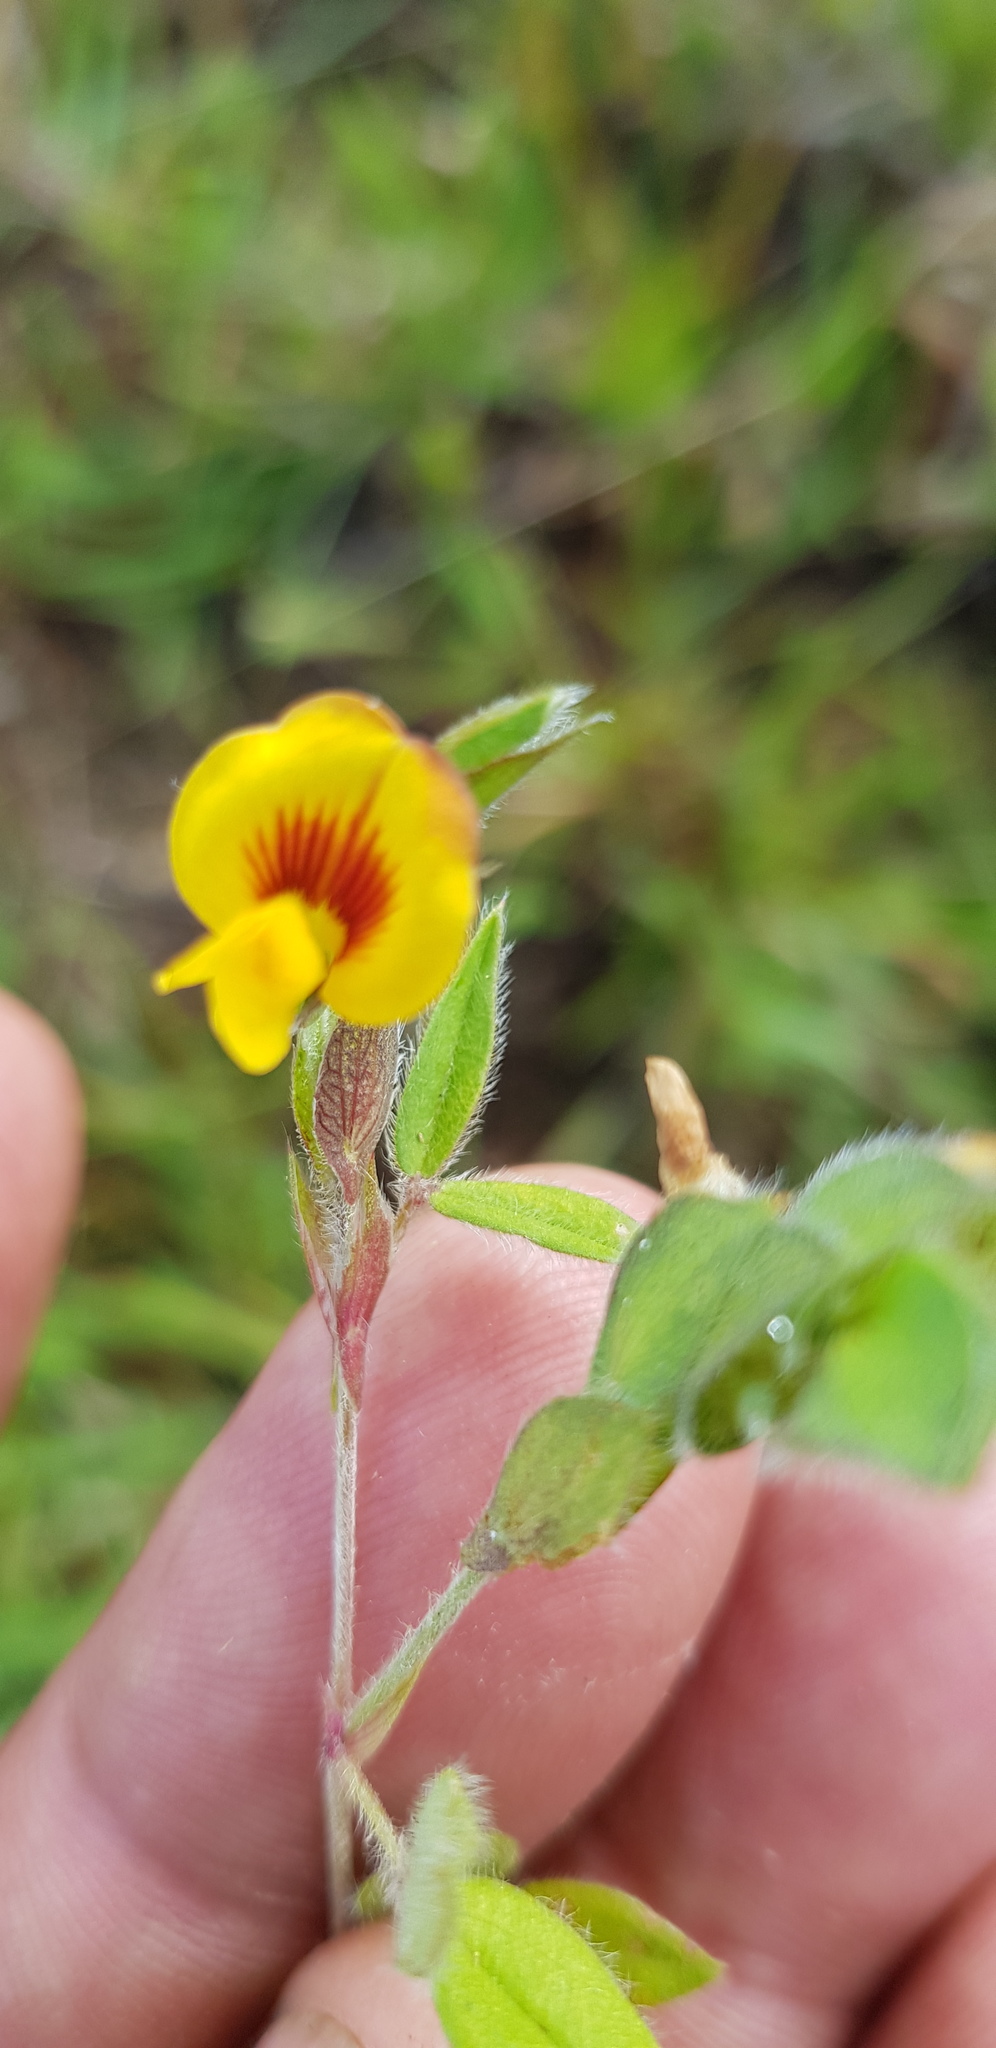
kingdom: Plantae
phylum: Tracheophyta
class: Magnoliopsida
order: Fabales
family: Fabaceae
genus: Zornia
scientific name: Zornia thymifolia
